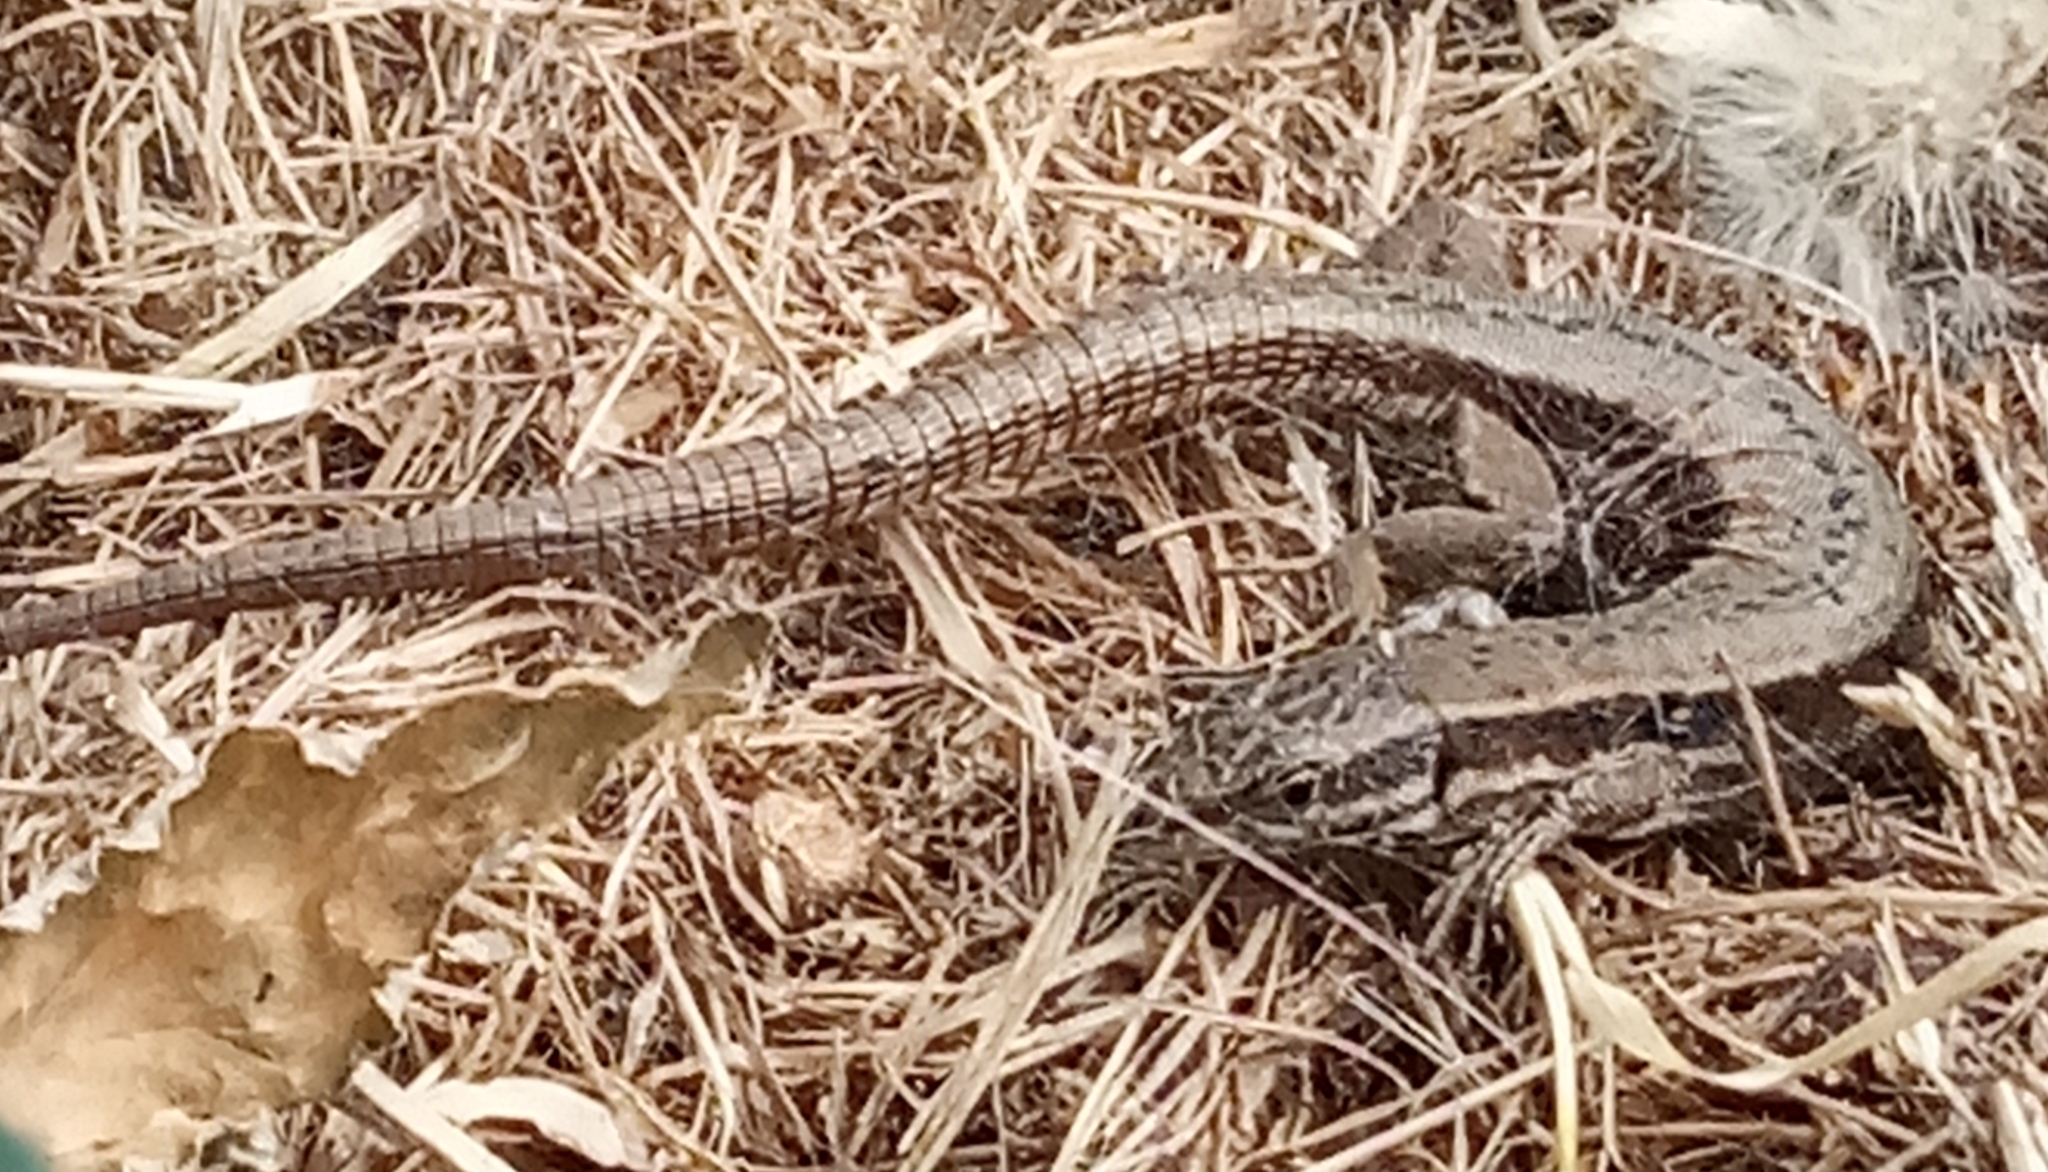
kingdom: Animalia
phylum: Chordata
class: Squamata
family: Lacertidae
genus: Podarcis
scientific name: Podarcis muralis
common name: Common wall lizard
